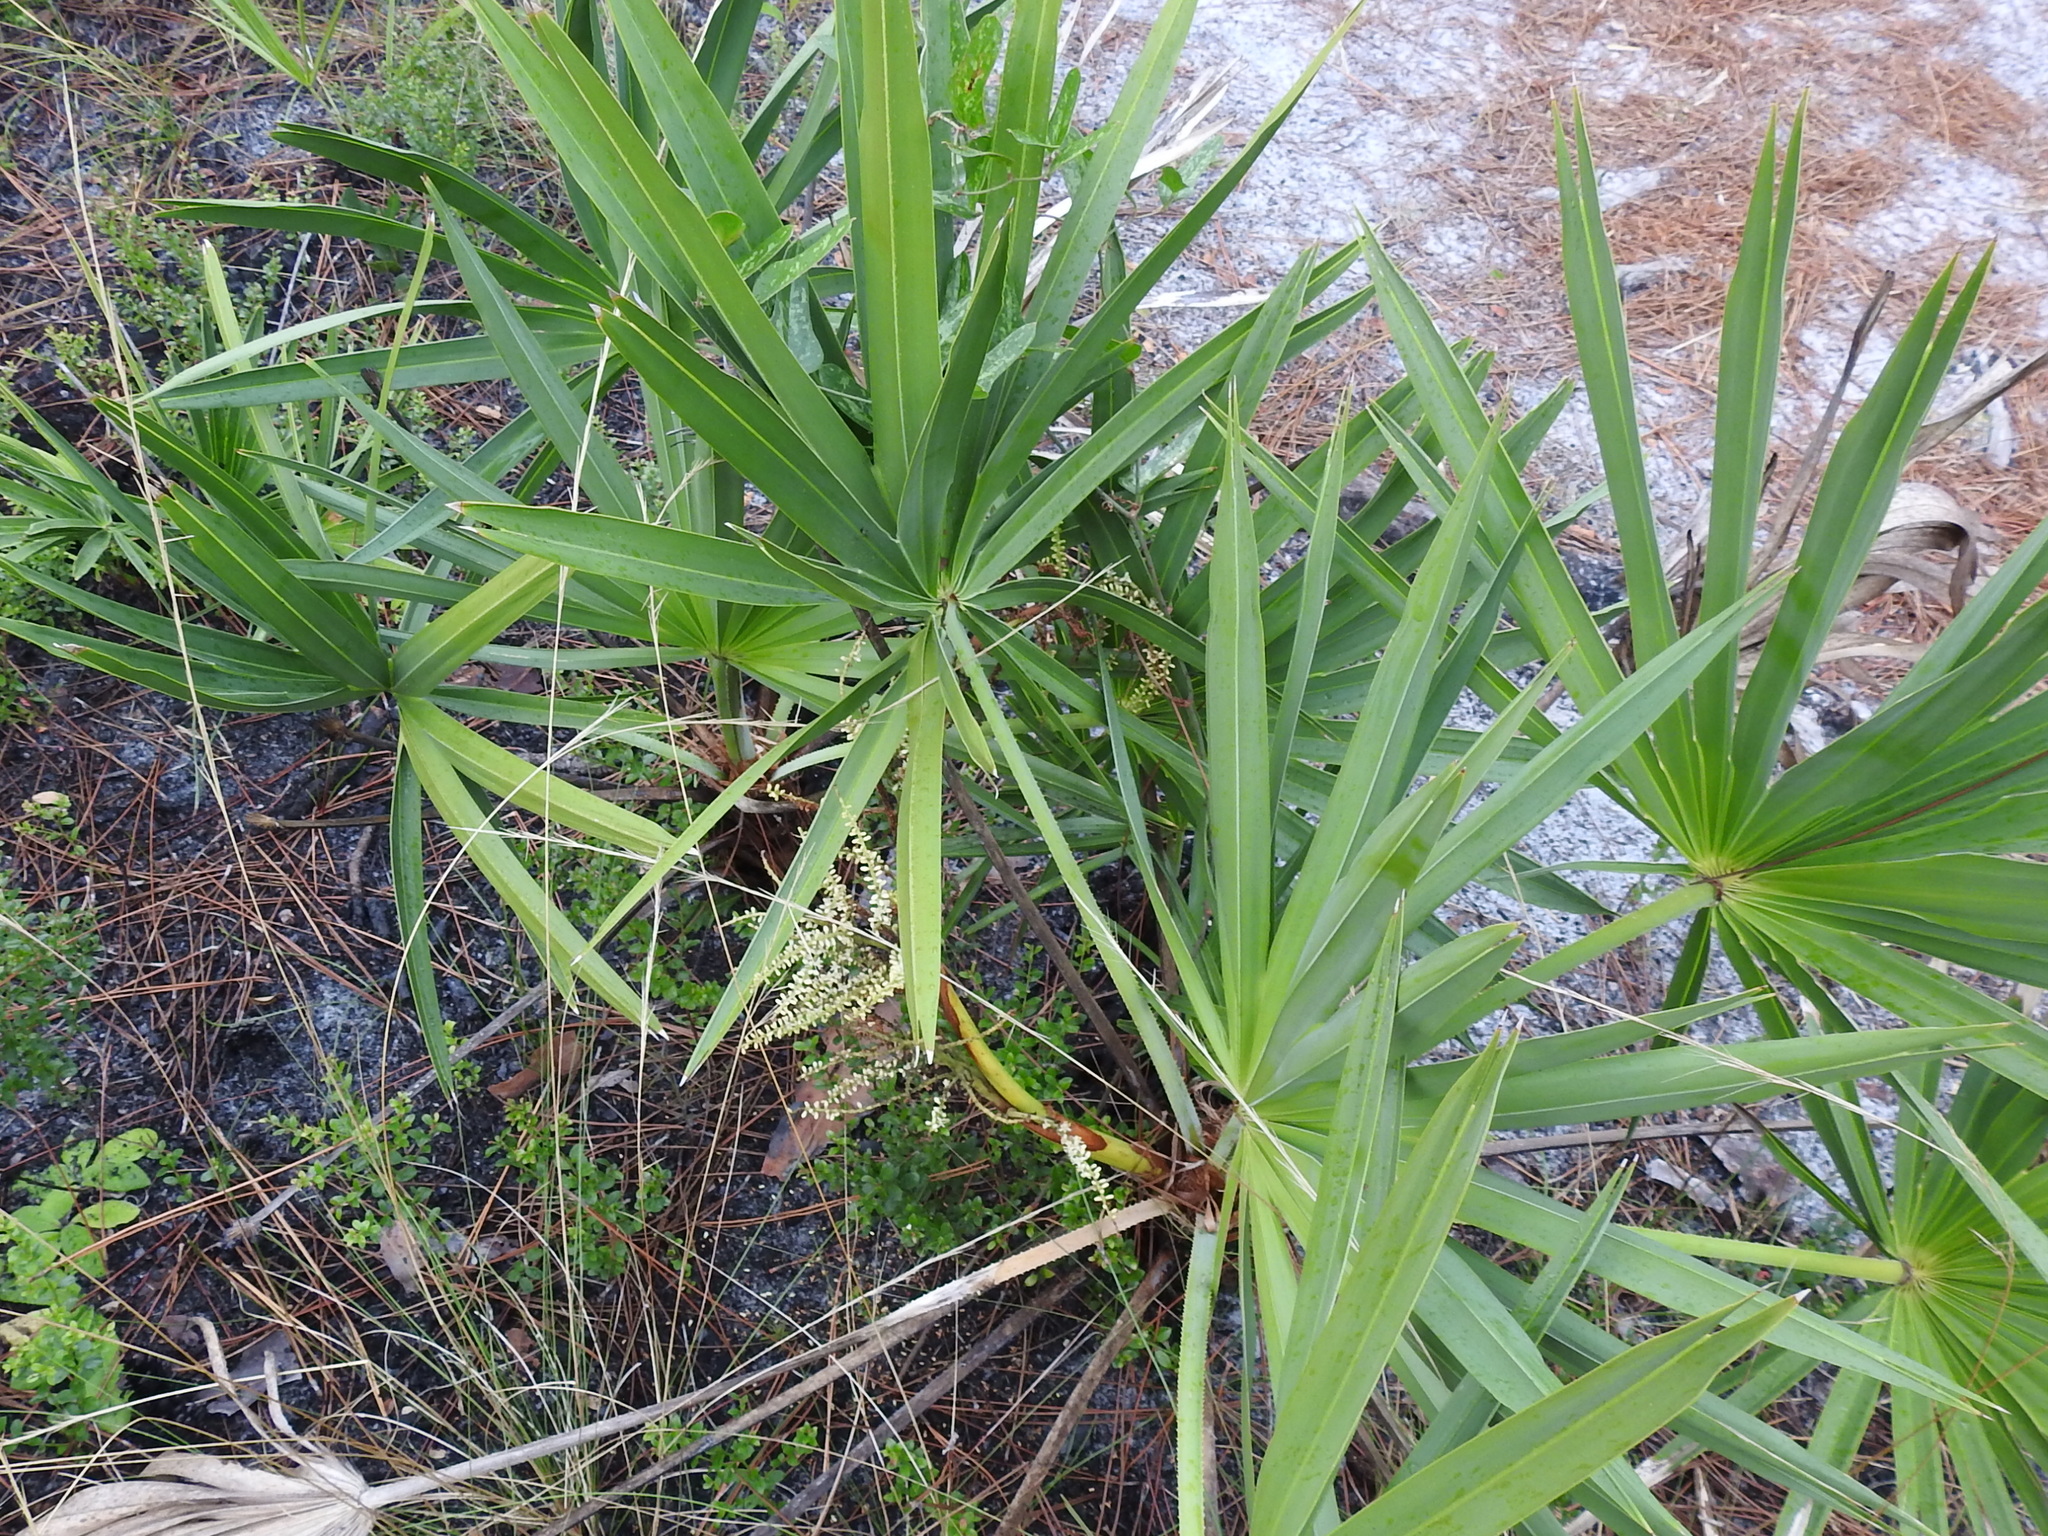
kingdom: Plantae
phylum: Tracheophyta
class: Liliopsida
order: Arecales
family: Arecaceae
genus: Serenoa
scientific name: Serenoa repens
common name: Saw-palmetto
